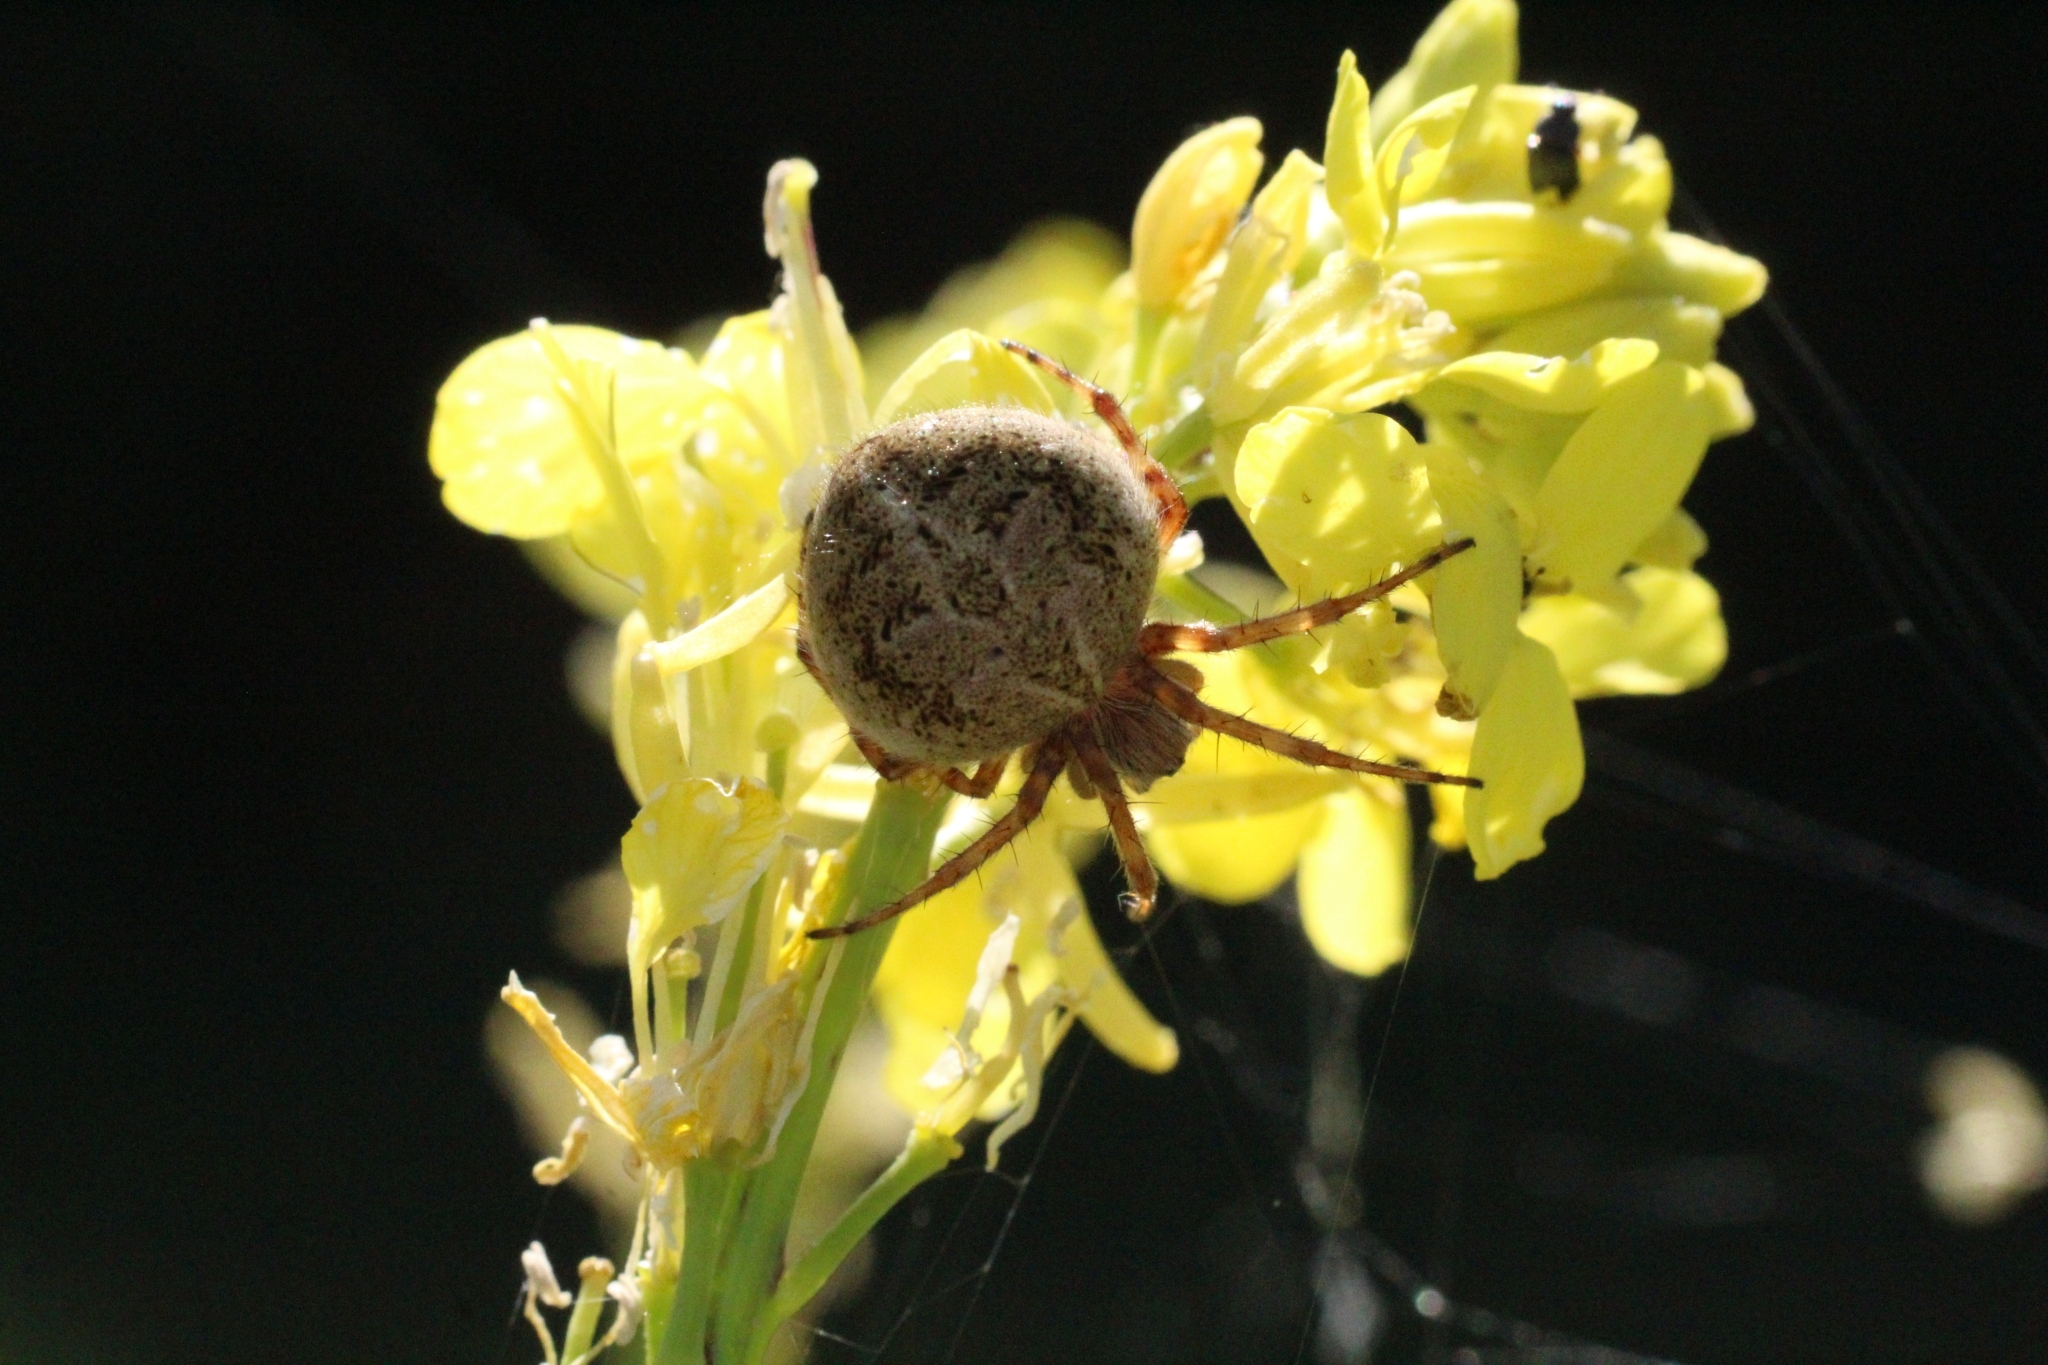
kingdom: Animalia
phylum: Arthropoda
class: Arachnida
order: Araneae
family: Araneidae
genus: Agalenatea
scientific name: Agalenatea redii
